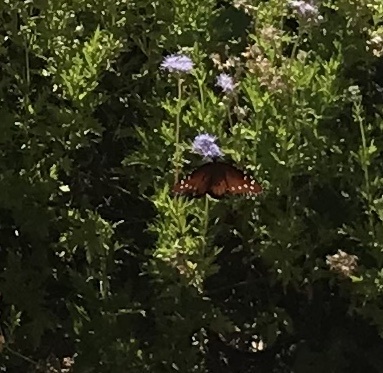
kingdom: Animalia
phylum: Arthropoda
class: Insecta
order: Lepidoptera
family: Nymphalidae
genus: Danaus
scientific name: Danaus gilippus
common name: Queen
